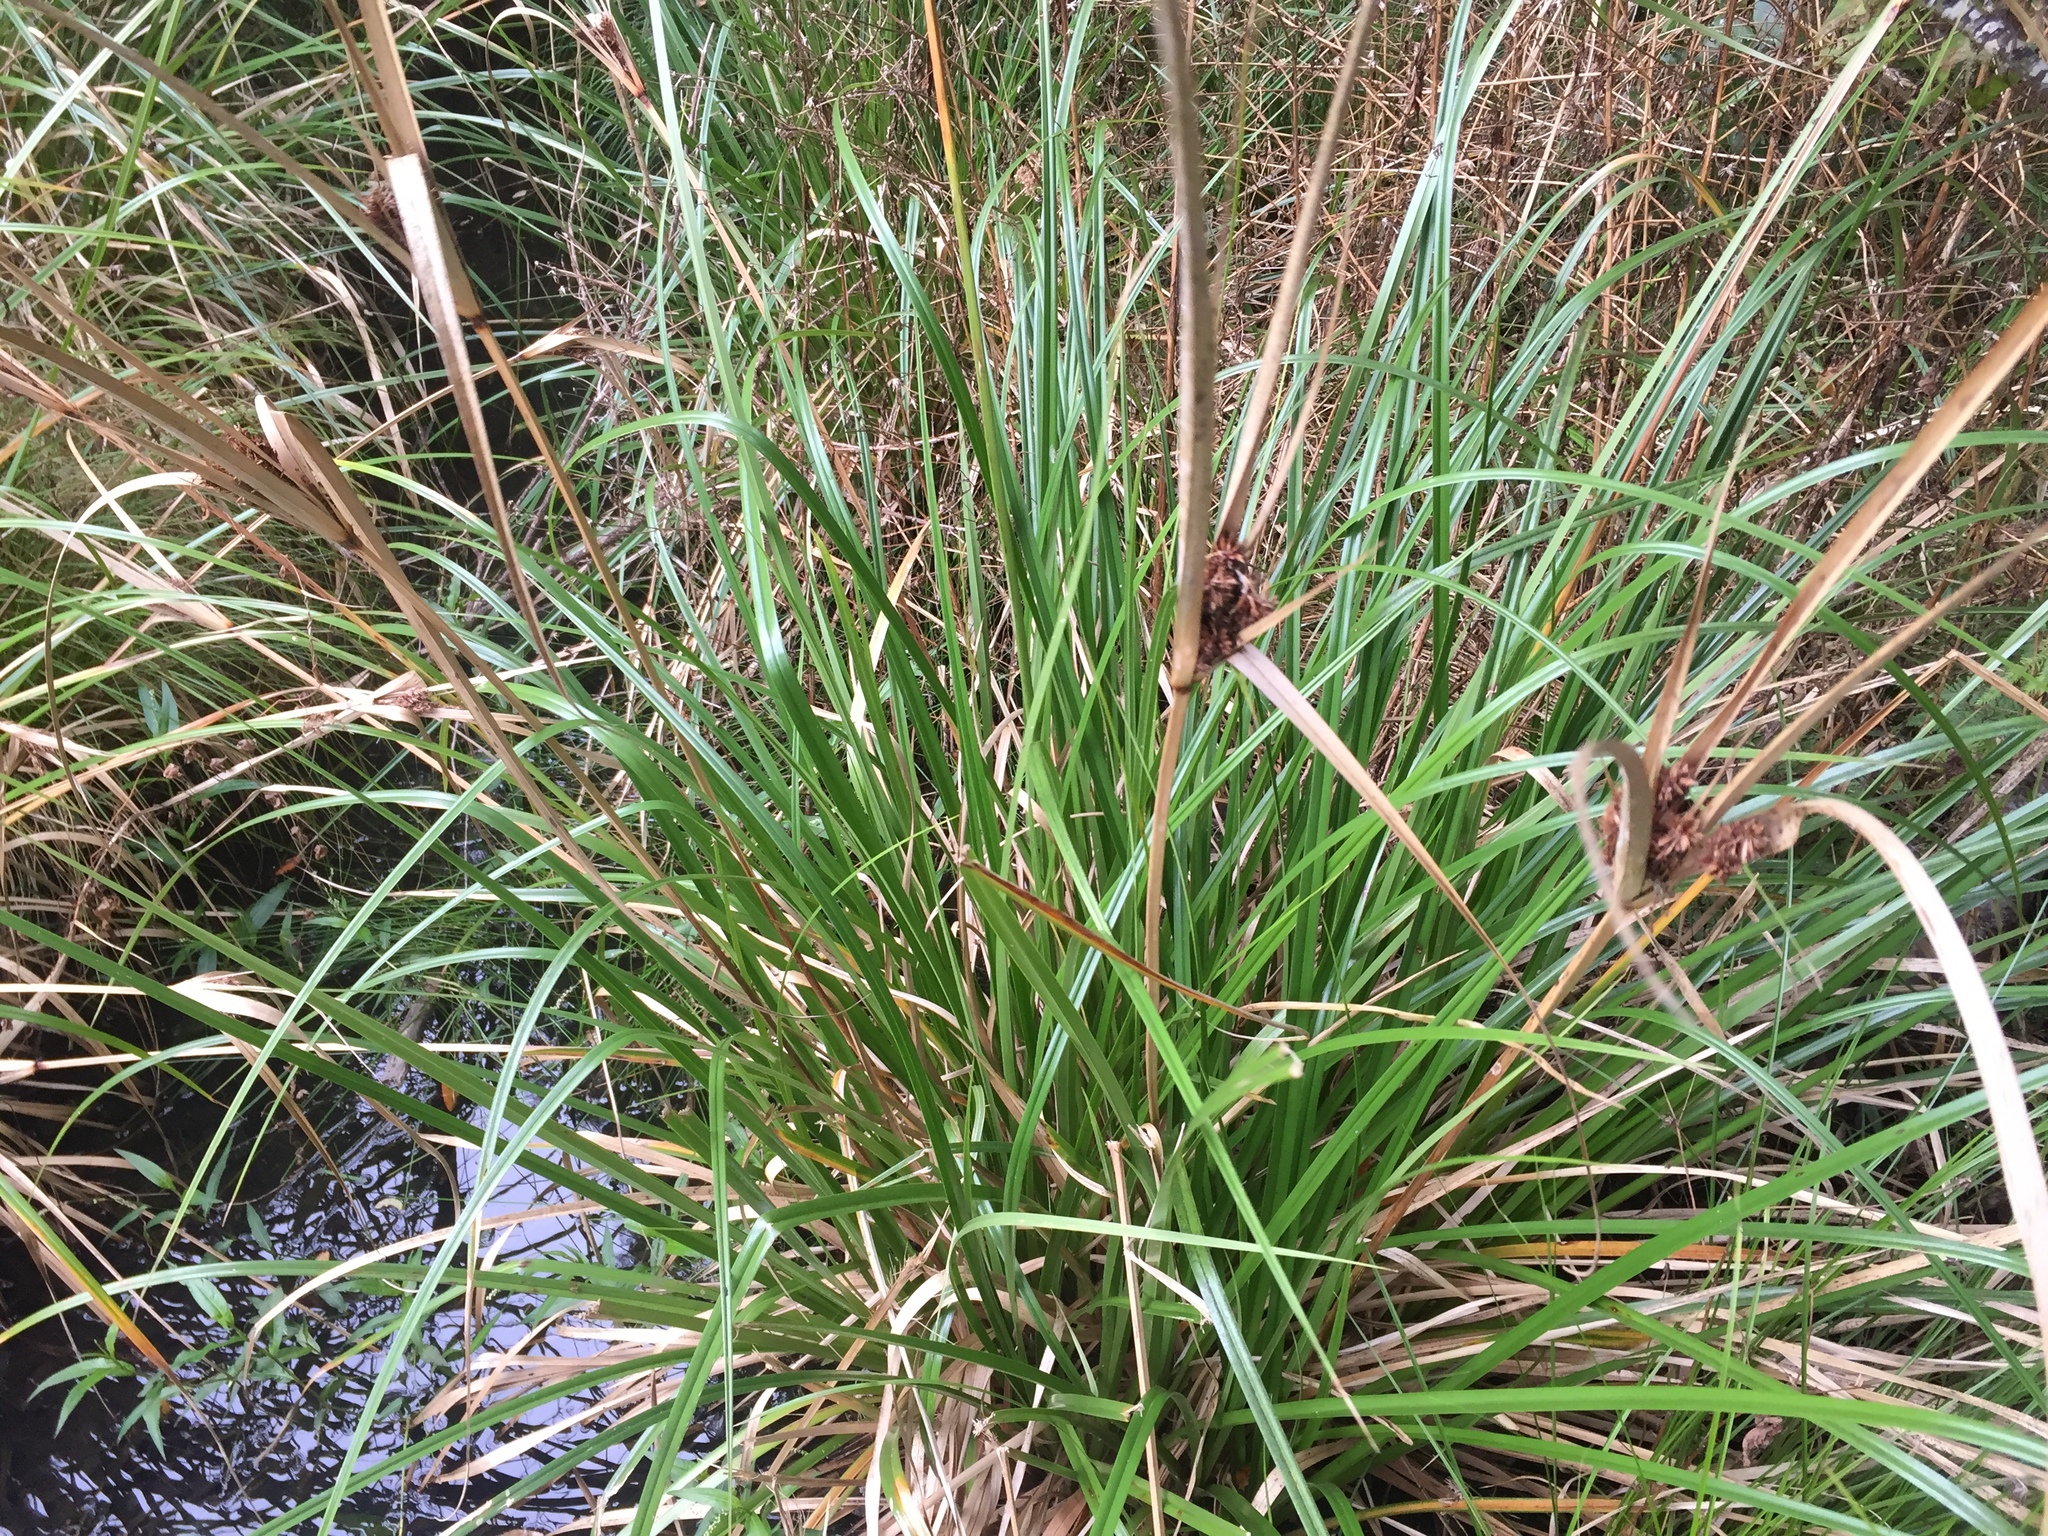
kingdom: Plantae
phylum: Tracheophyta
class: Liliopsida
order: Poales
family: Cyperaceae
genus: Cyperus
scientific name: Cyperus ustulatus
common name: Giant umbrella-sedge
